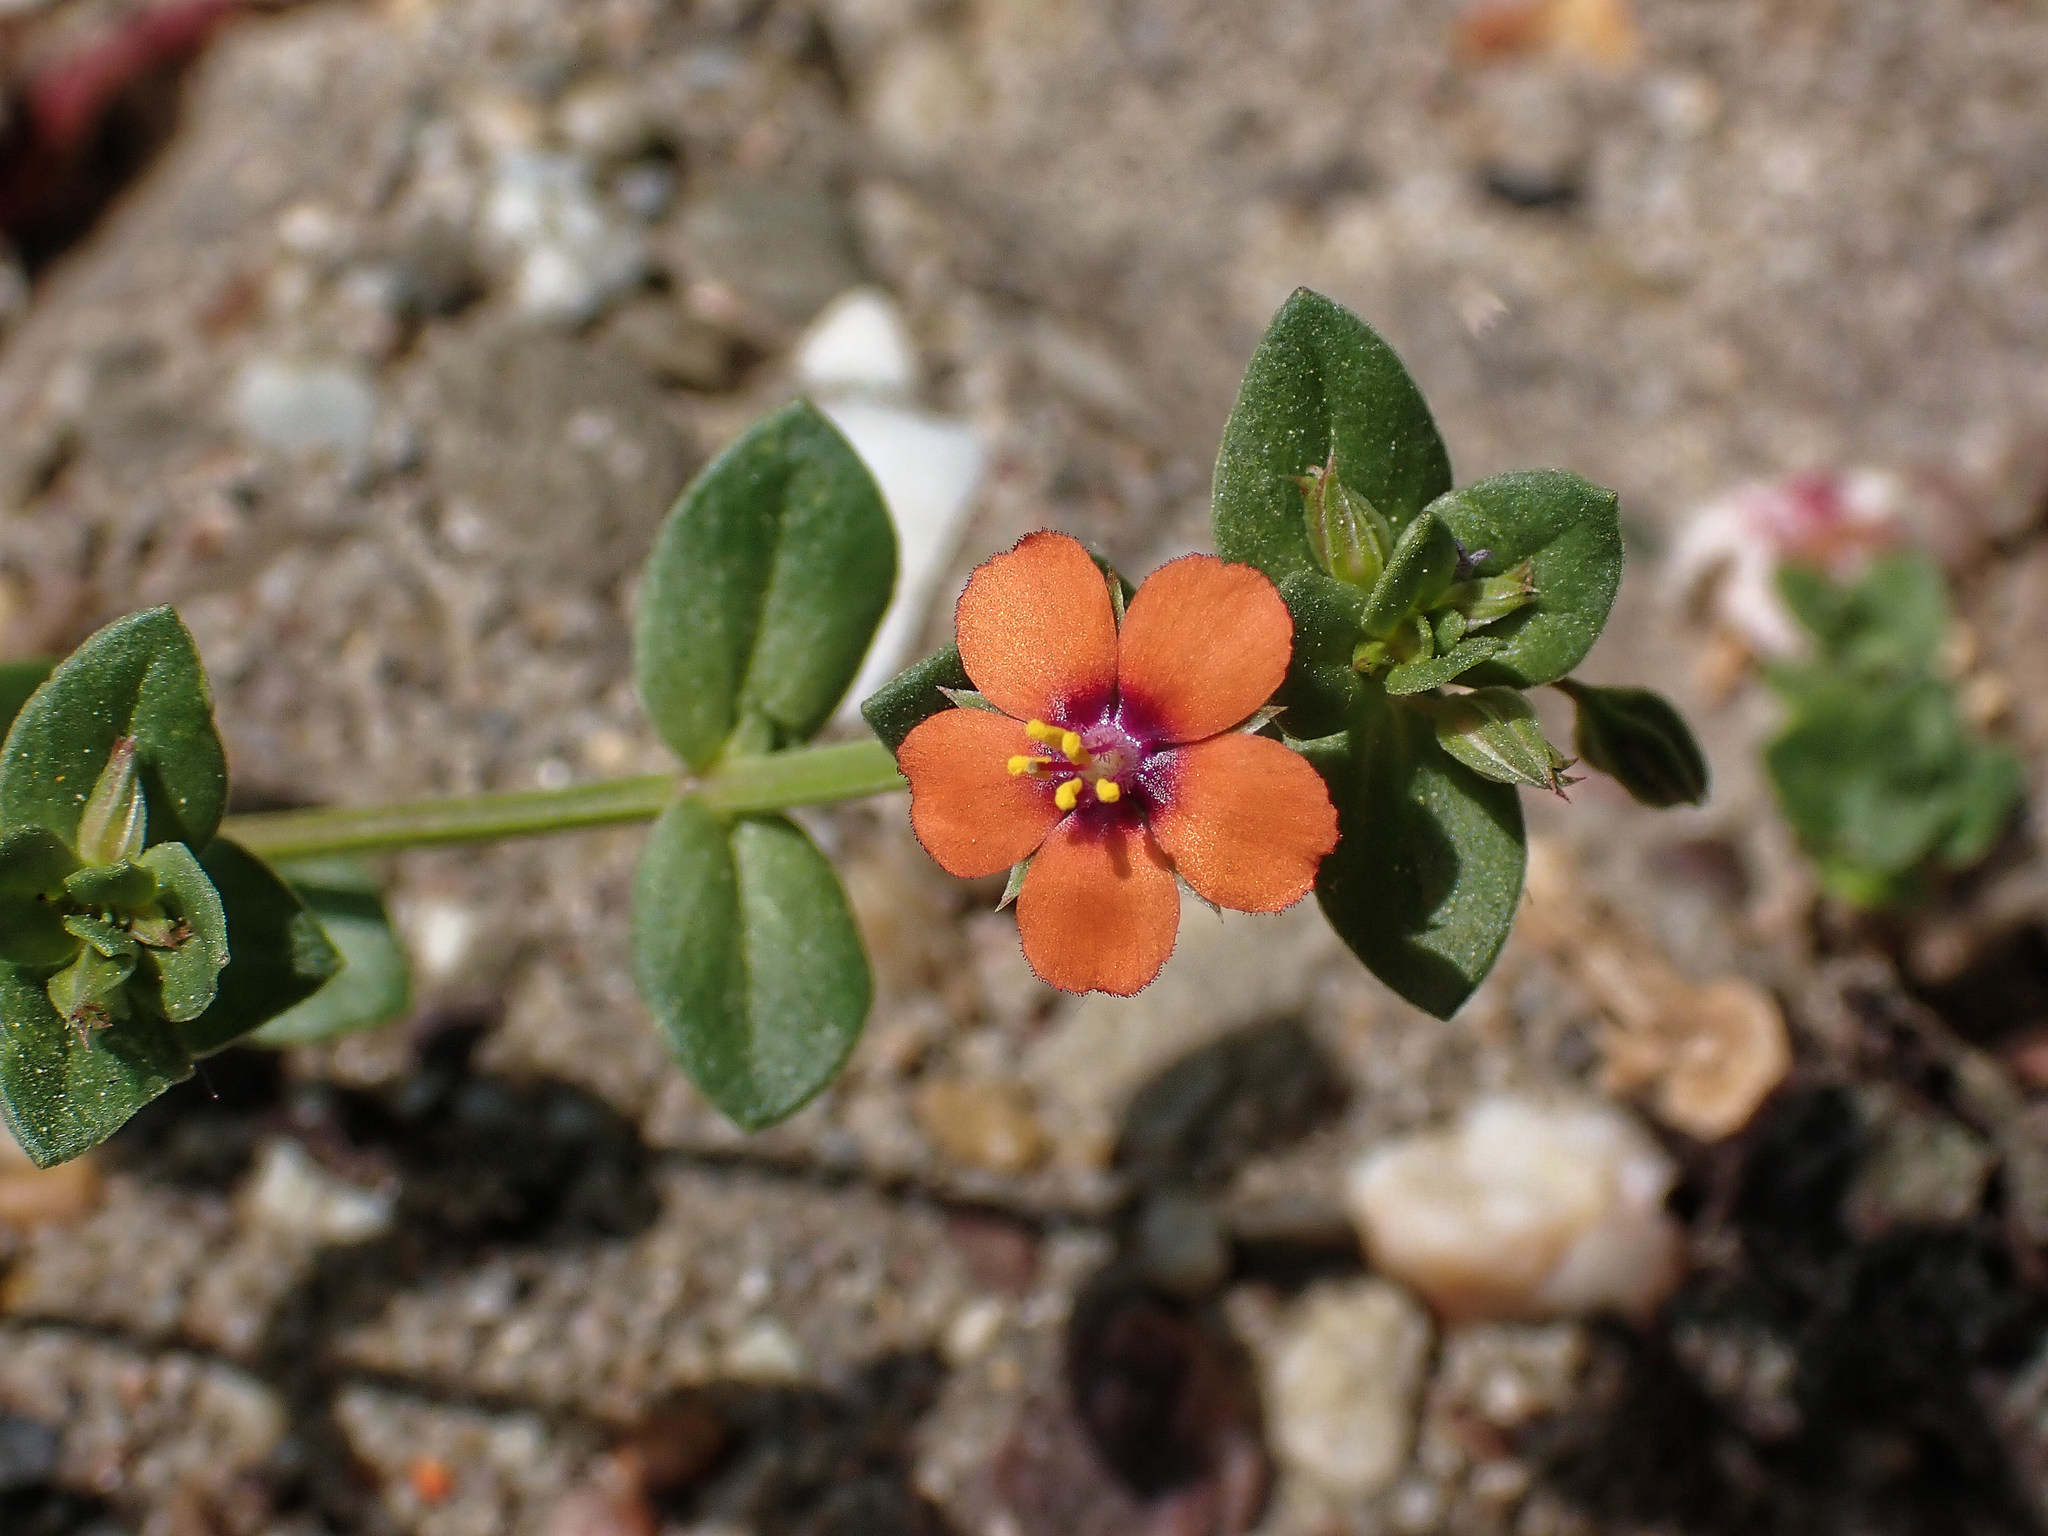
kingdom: Plantae
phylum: Tracheophyta
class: Magnoliopsida
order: Ericales
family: Primulaceae
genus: Lysimachia
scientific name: Lysimachia arvensis
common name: Scarlet pimpernel
